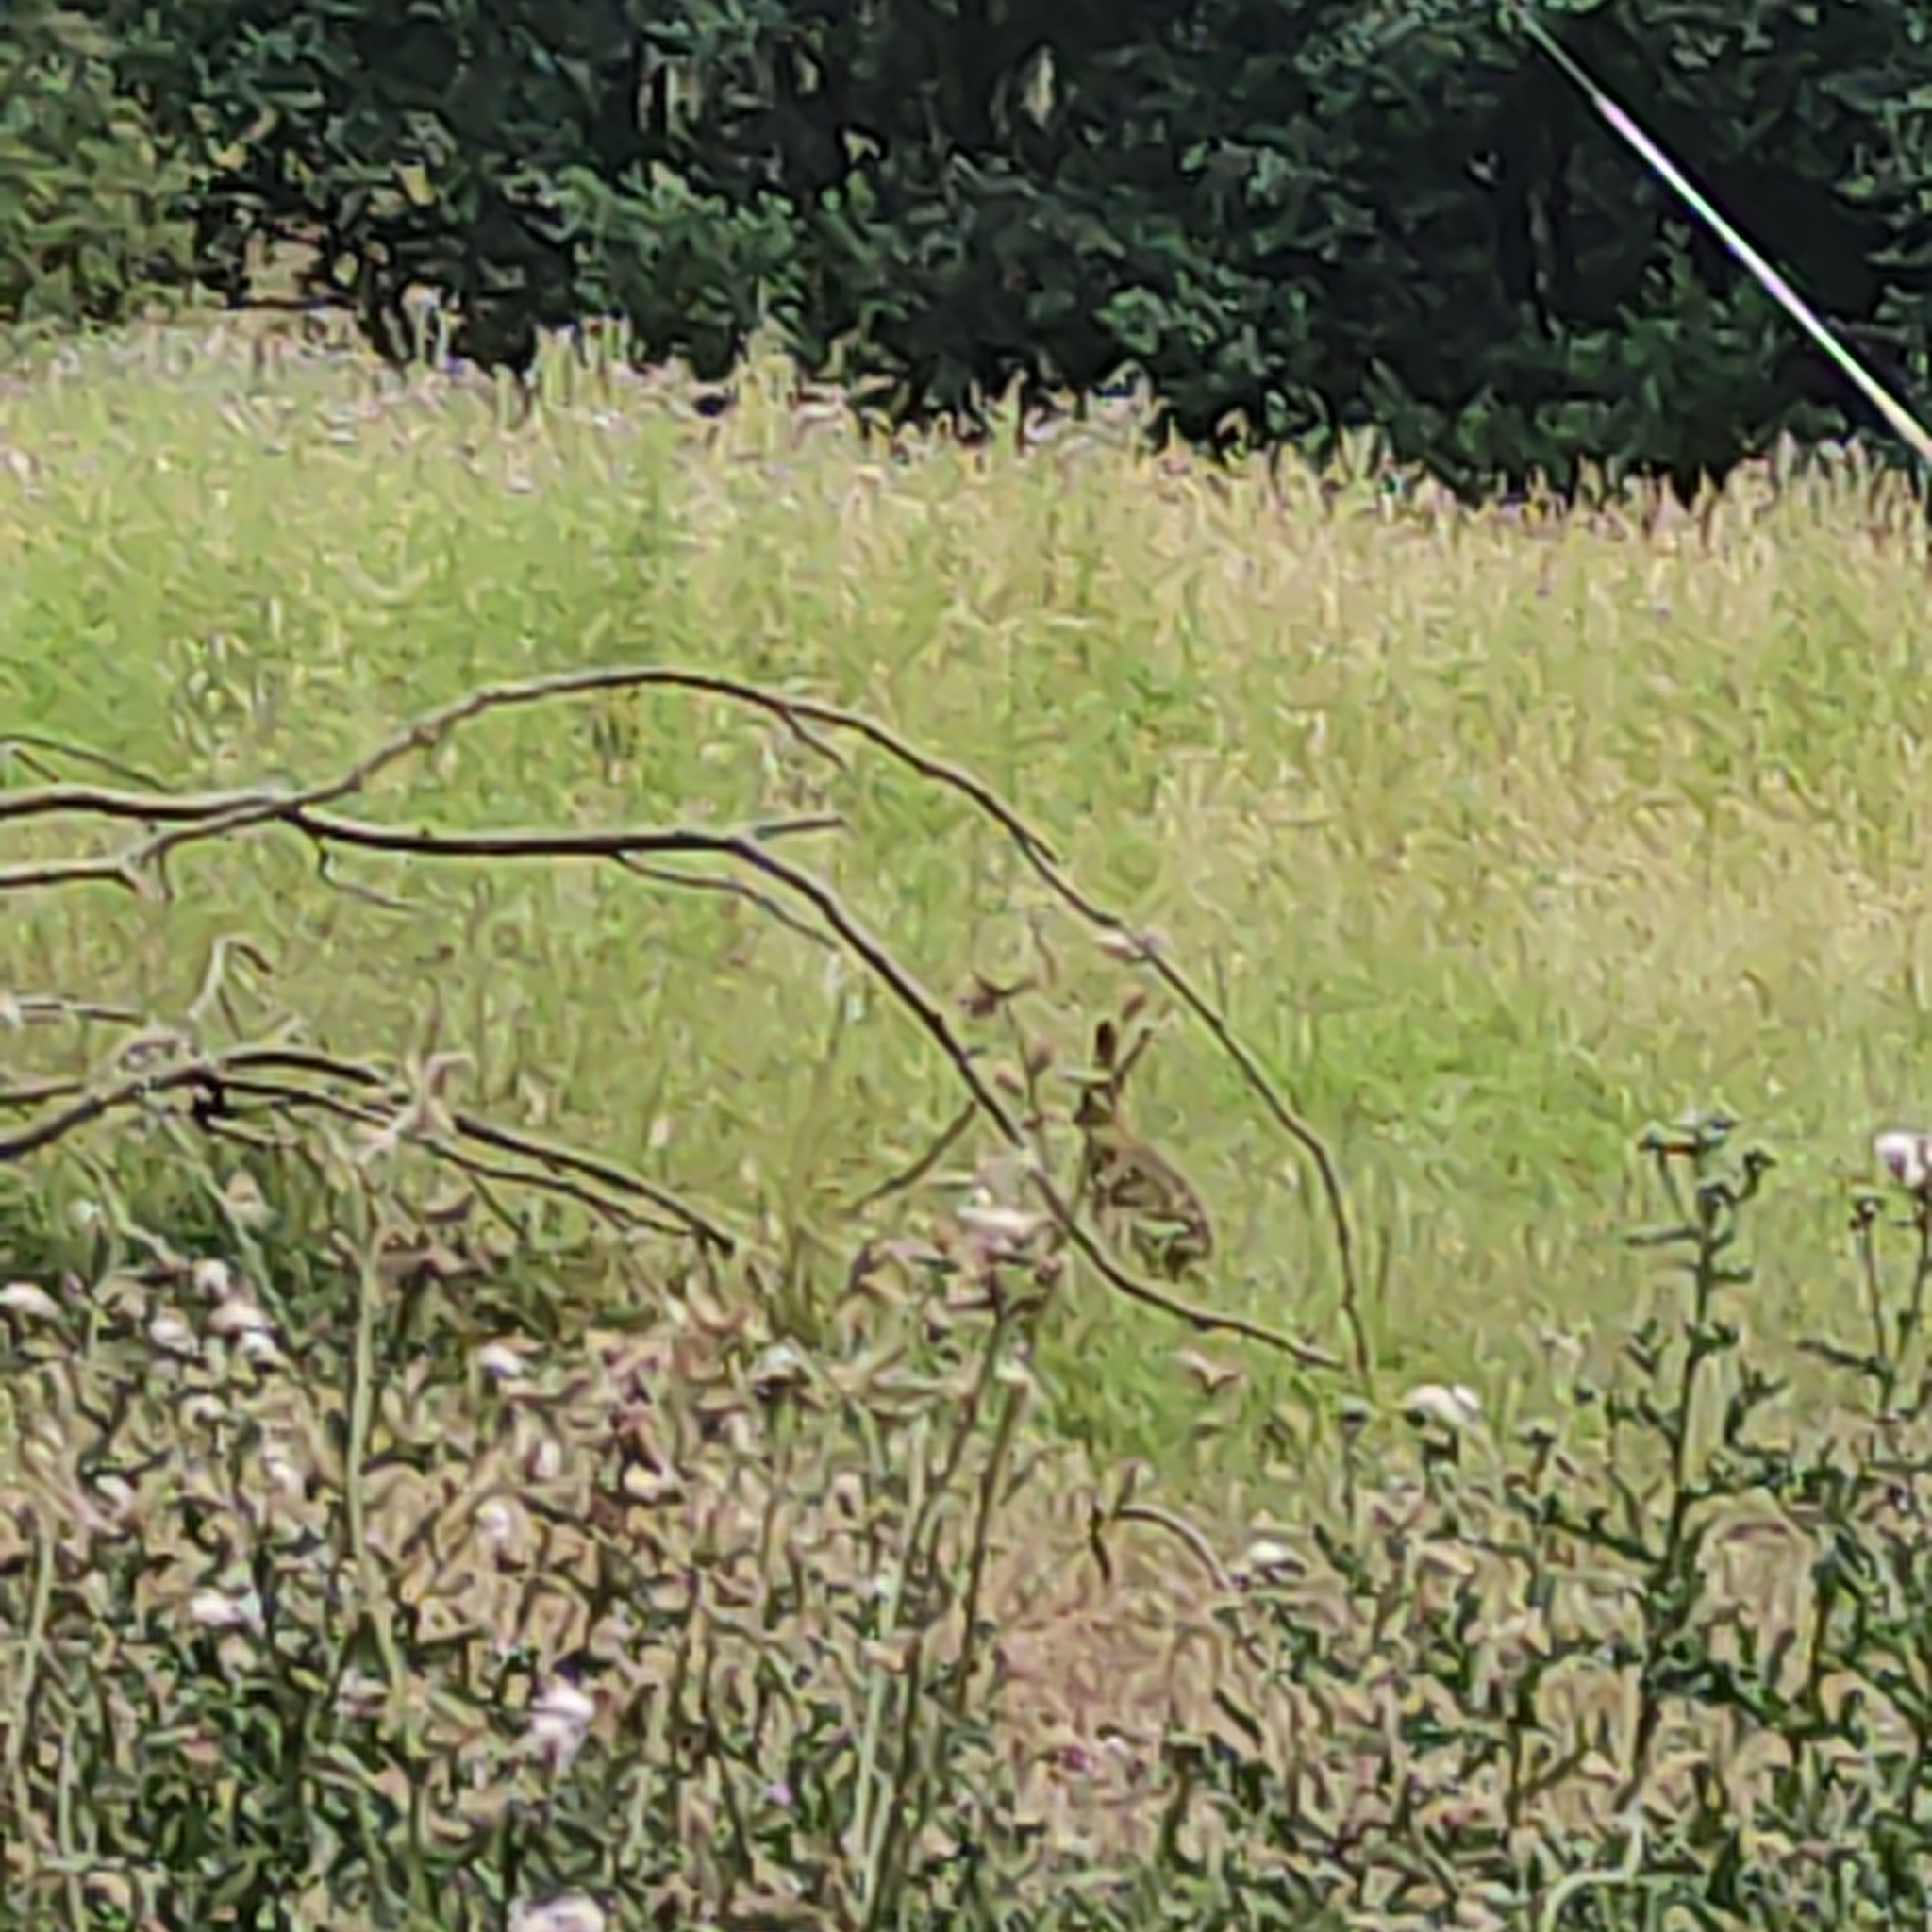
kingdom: Animalia
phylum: Chordata
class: Mammalia
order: Lagomorpha
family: Leporidae
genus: Lepus
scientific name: Lepus europaeus
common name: European hare
